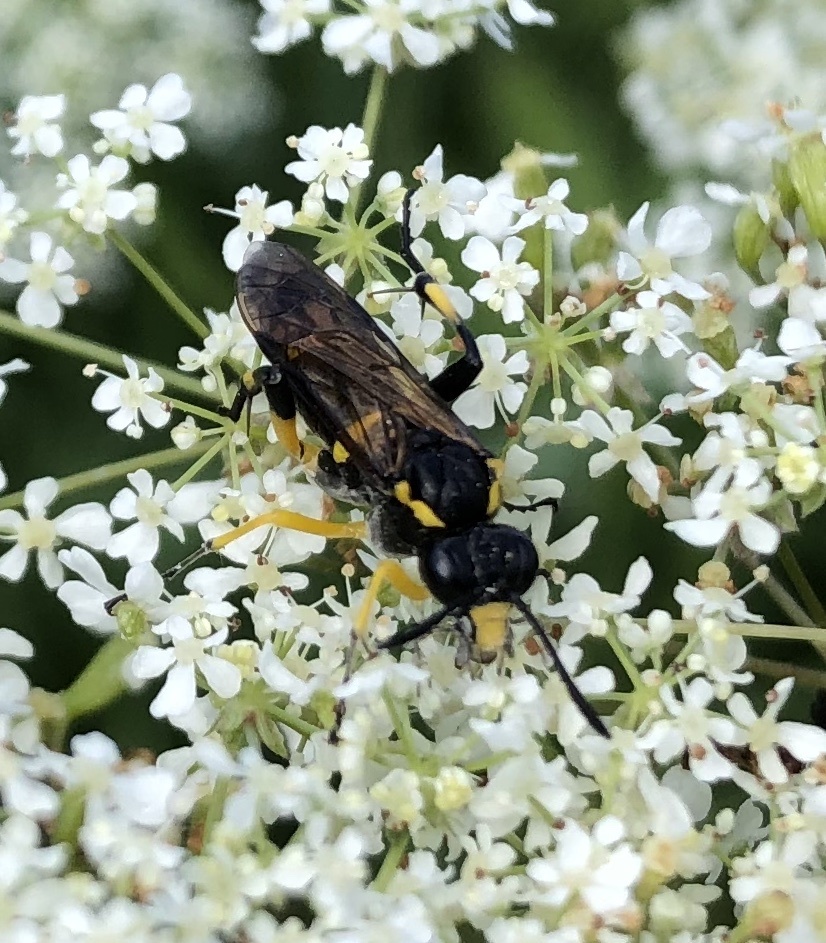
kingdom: Animalia
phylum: Arthropoda
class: Insecta
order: Hymenoptera
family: Tenthredinidae
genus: Macrophya
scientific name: Macrophya montana
